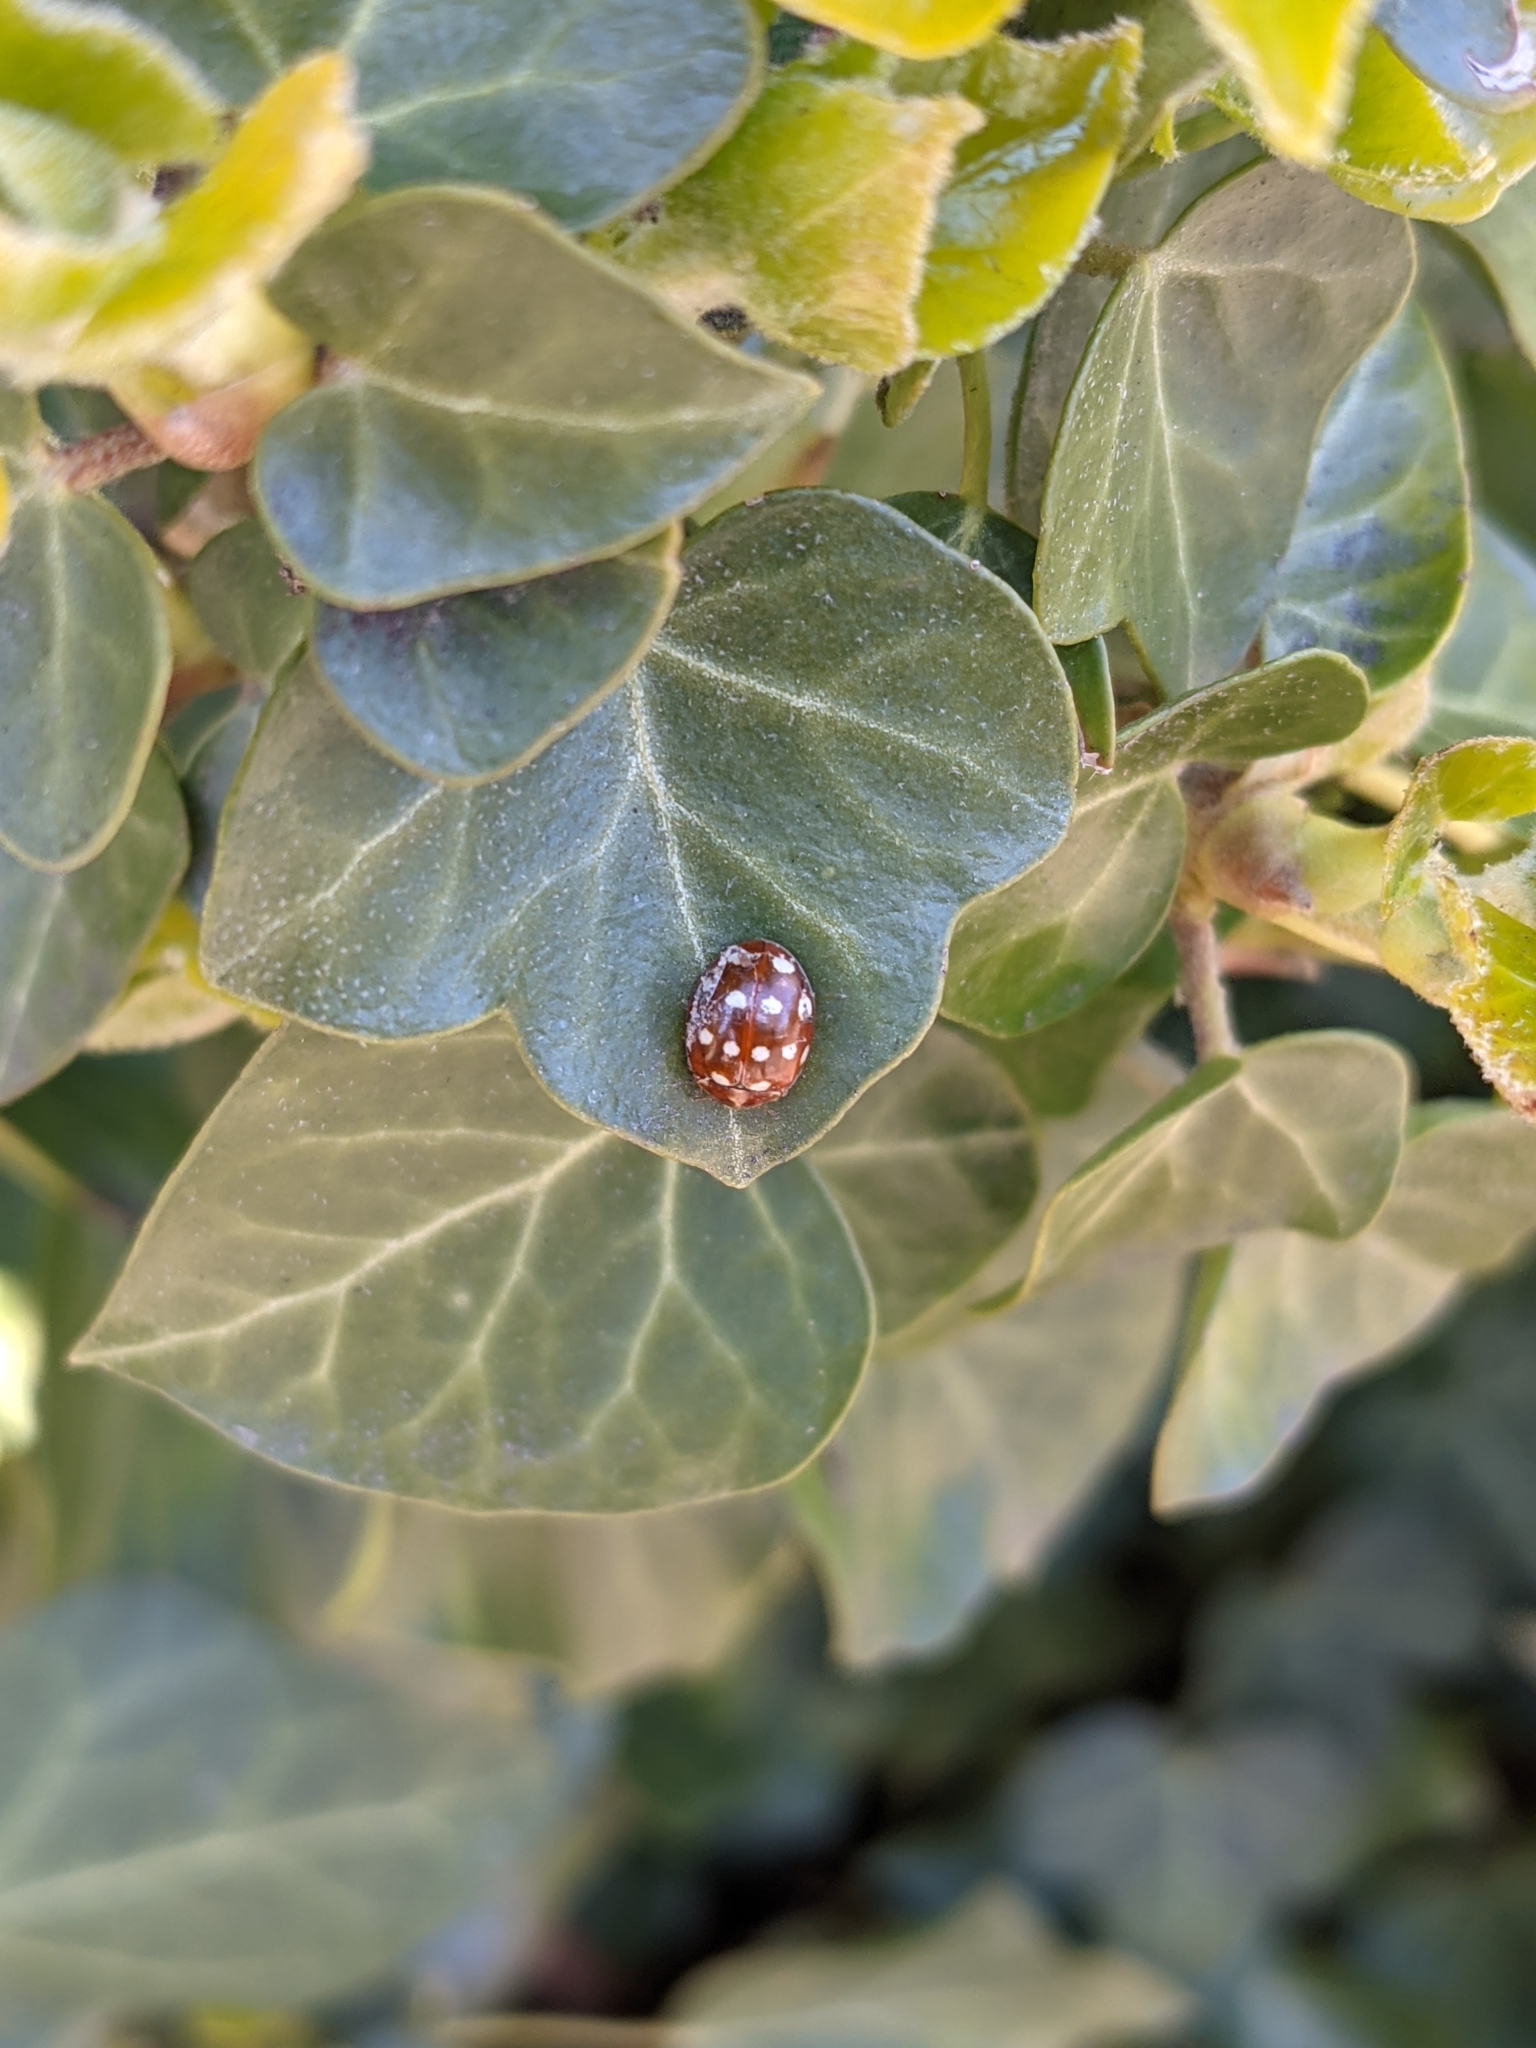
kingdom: Animalia
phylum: Arthropoda
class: Insecta
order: Coleoptera
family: Coccinellidae
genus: Calvia
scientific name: Calvia quatuordecimguttata
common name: Cream-spot ladybird
